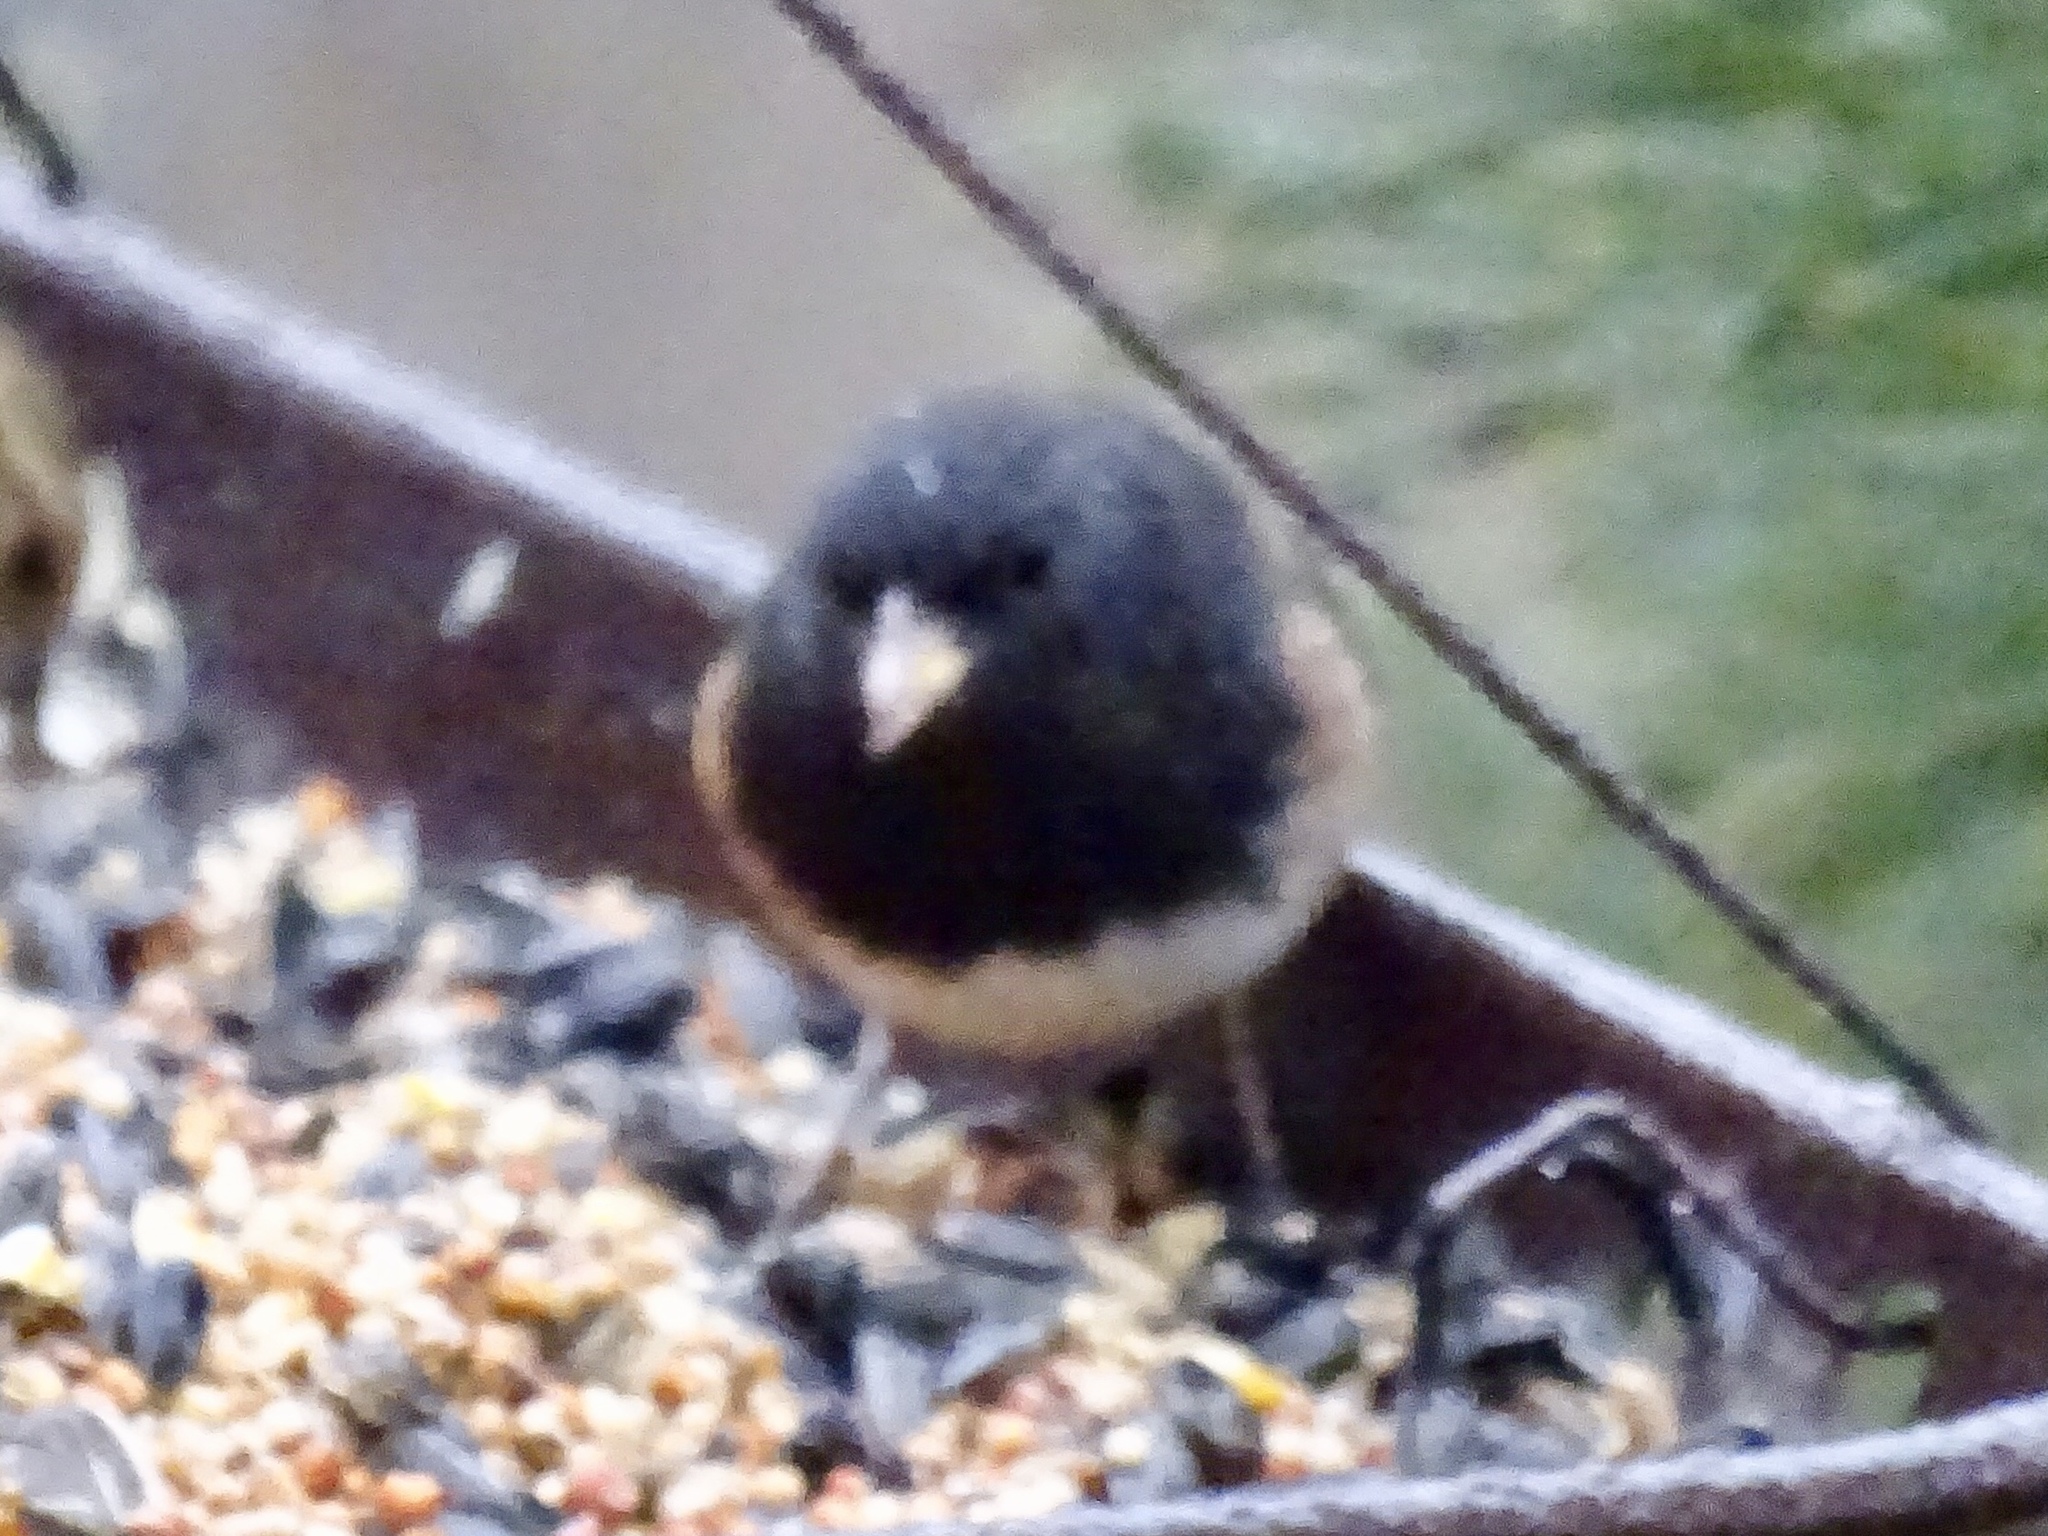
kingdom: Animalia
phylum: Chordata
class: Aves
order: Passeriformes
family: Passerellidae
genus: Junco
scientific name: Junco hyemalis
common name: Dark-eyed junco
